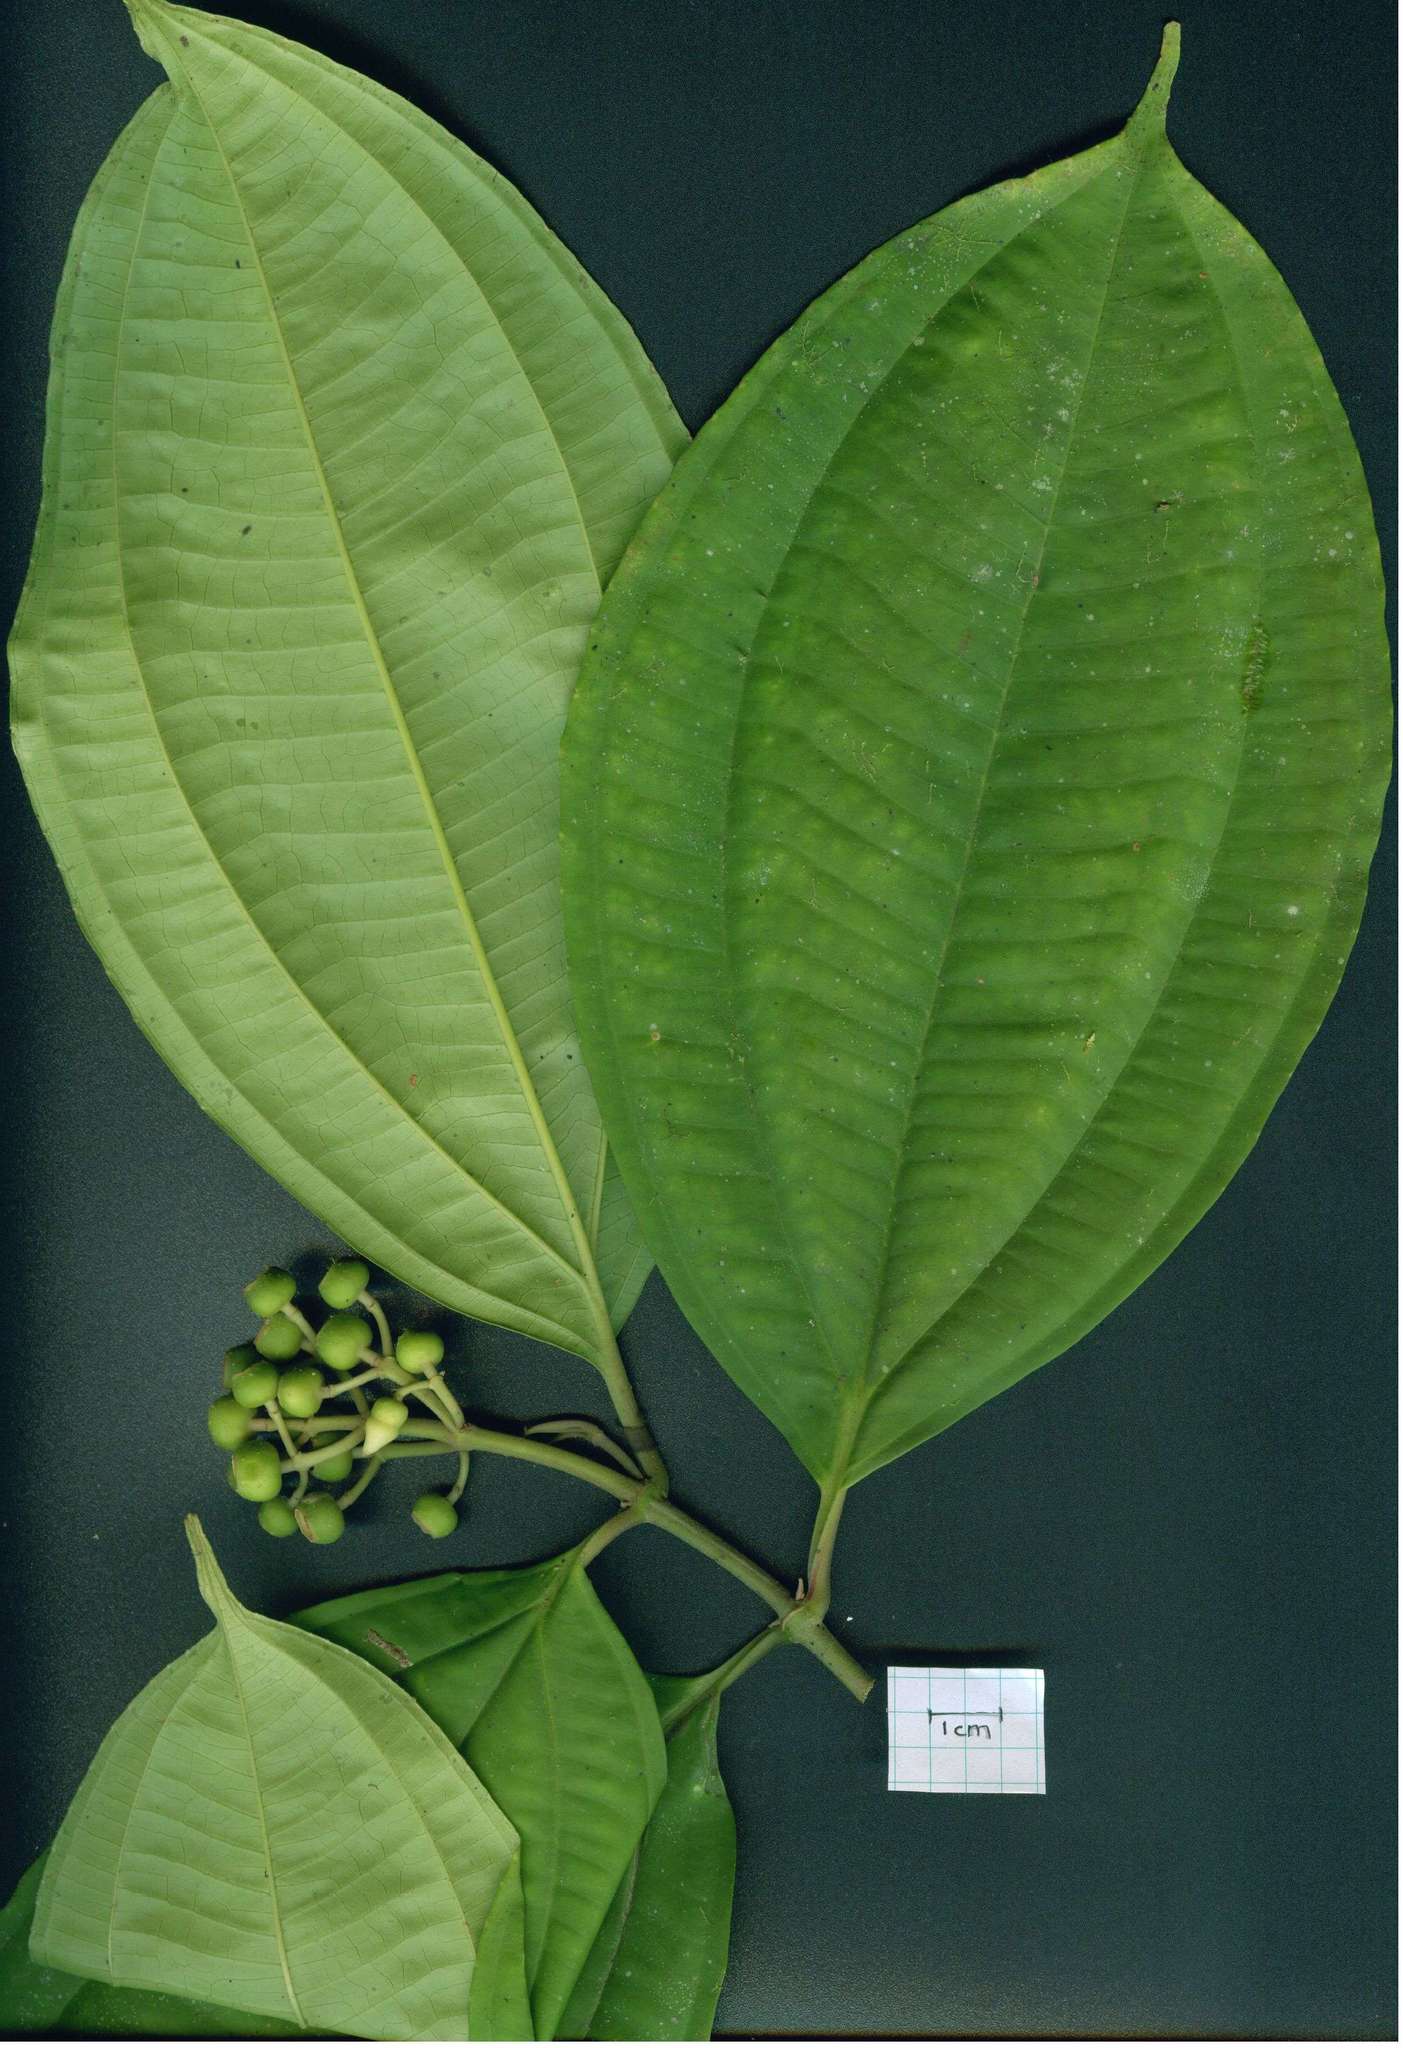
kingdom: Plantae
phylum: Tracheophyta
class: Magnoliopsida
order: Myrtales
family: Melastomataceae
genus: Miconia
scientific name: Miconia tenuifolia
